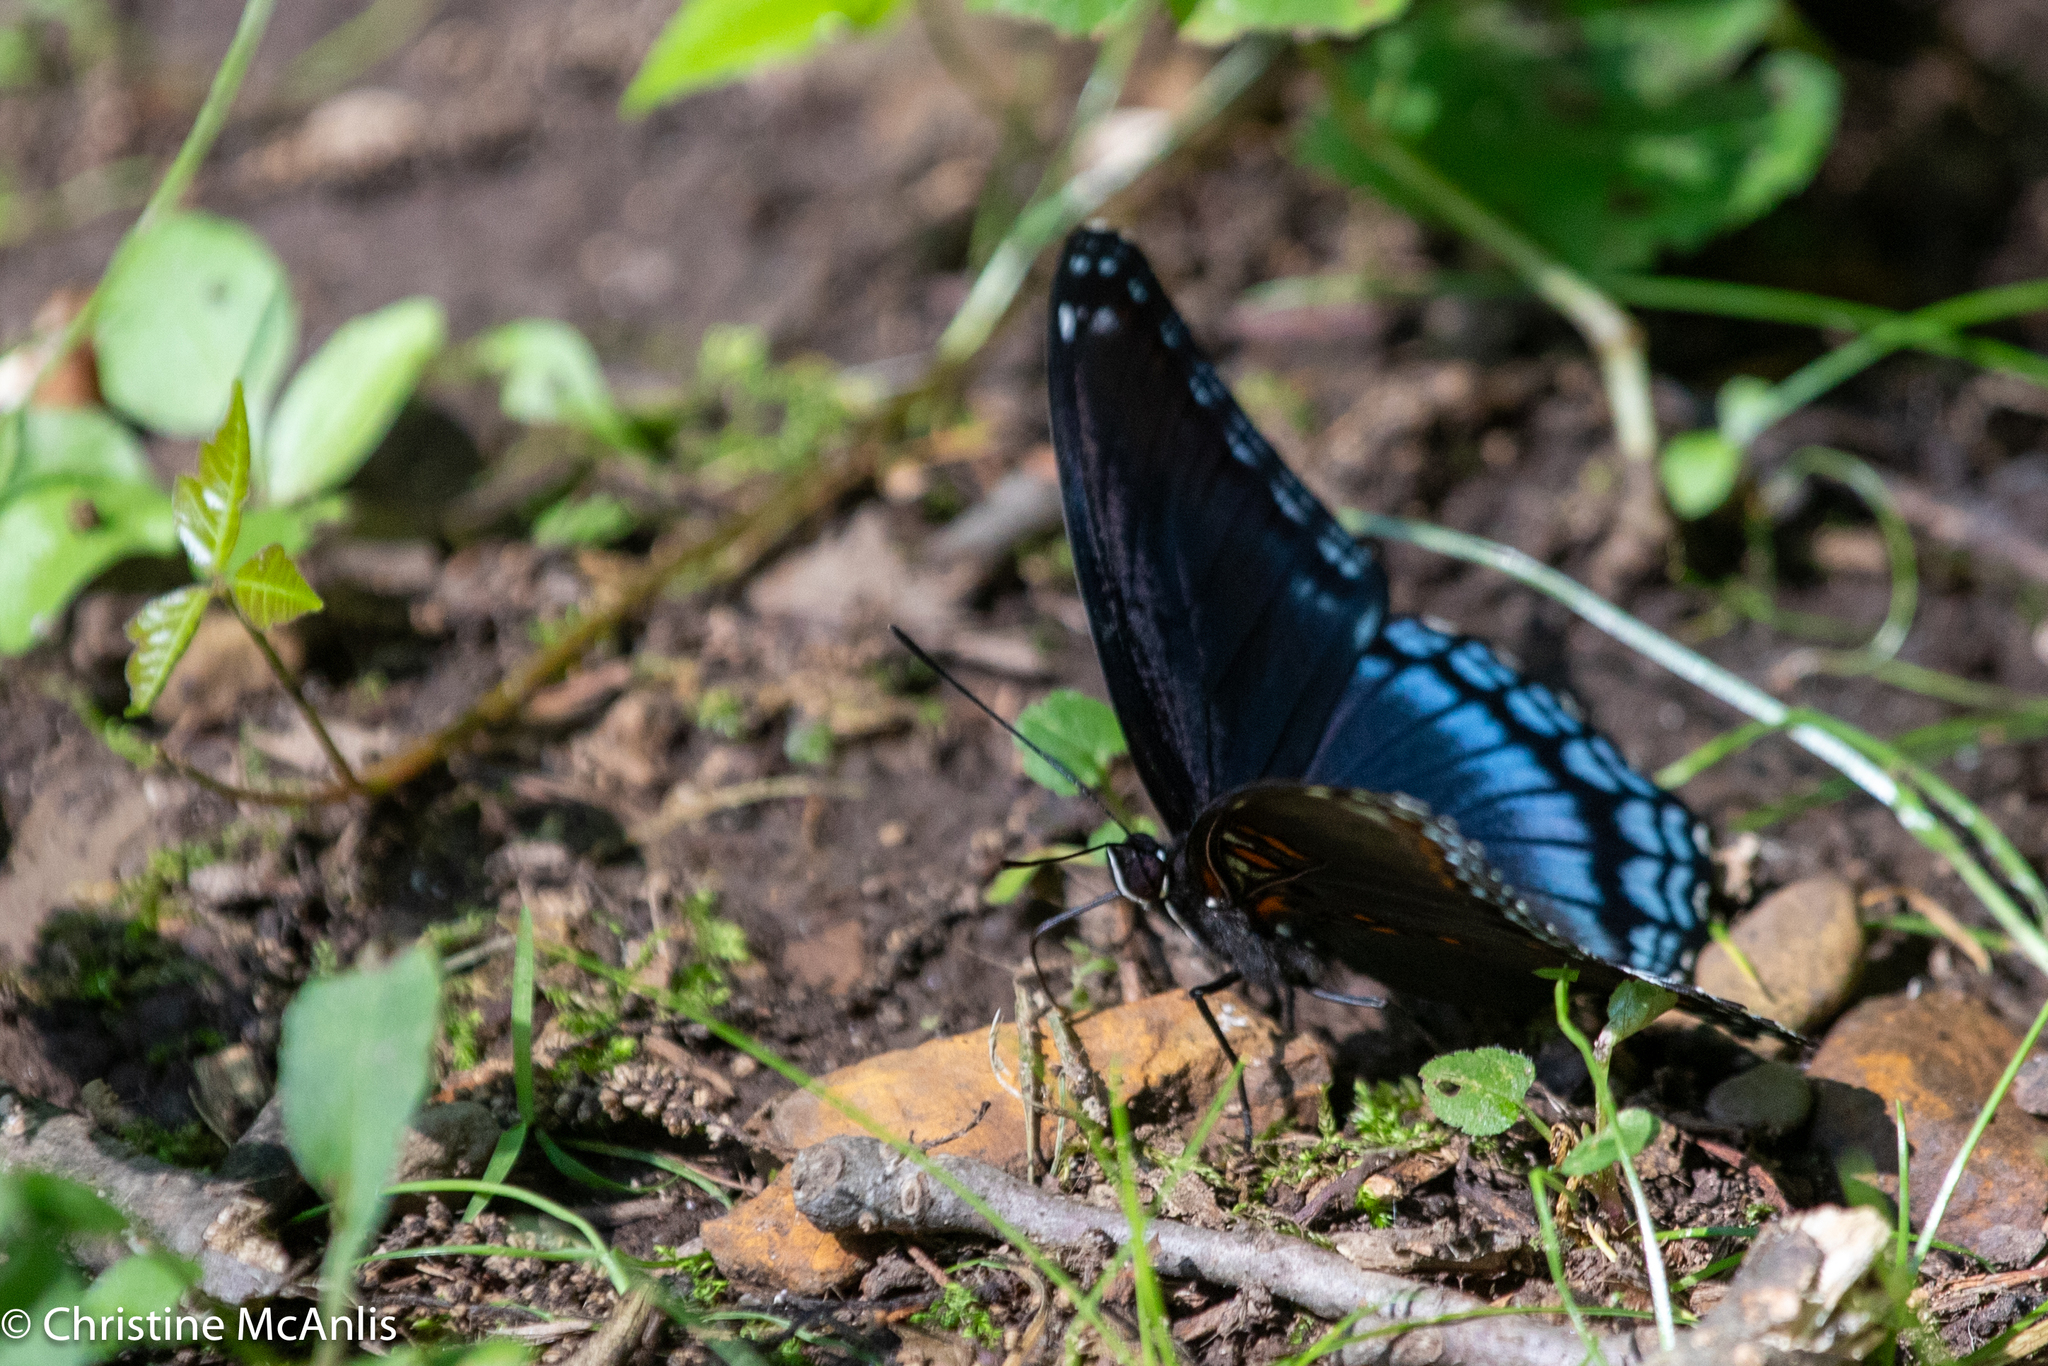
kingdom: Animalia
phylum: Arthropoda
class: Insecta
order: Lepidoptera
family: Nymphalidae
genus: Limenitis
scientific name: Limenitis astyanax
